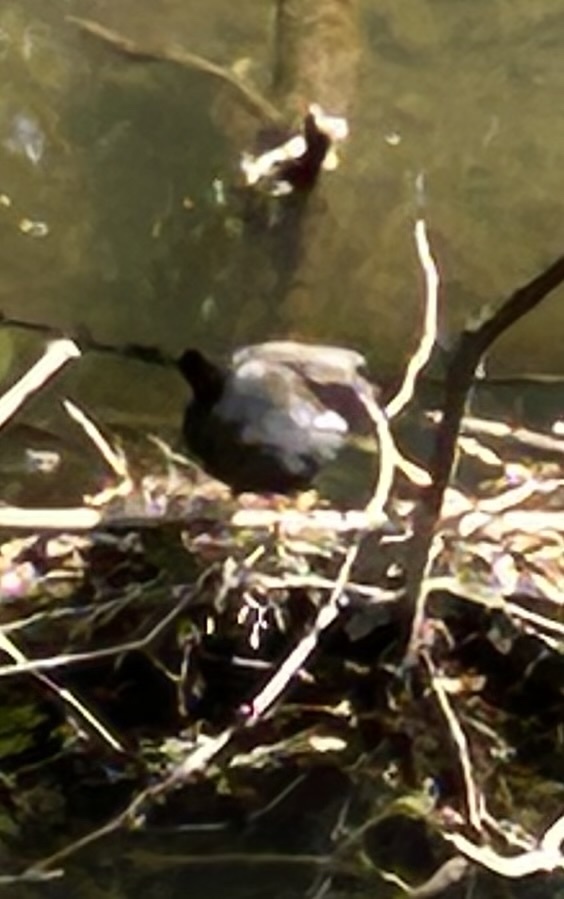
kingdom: Animalia
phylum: Chordata
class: Aves
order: Gruiformes
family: Rallidae
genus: Gallinula
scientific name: Gallinula chloropus
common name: Common moorhen
